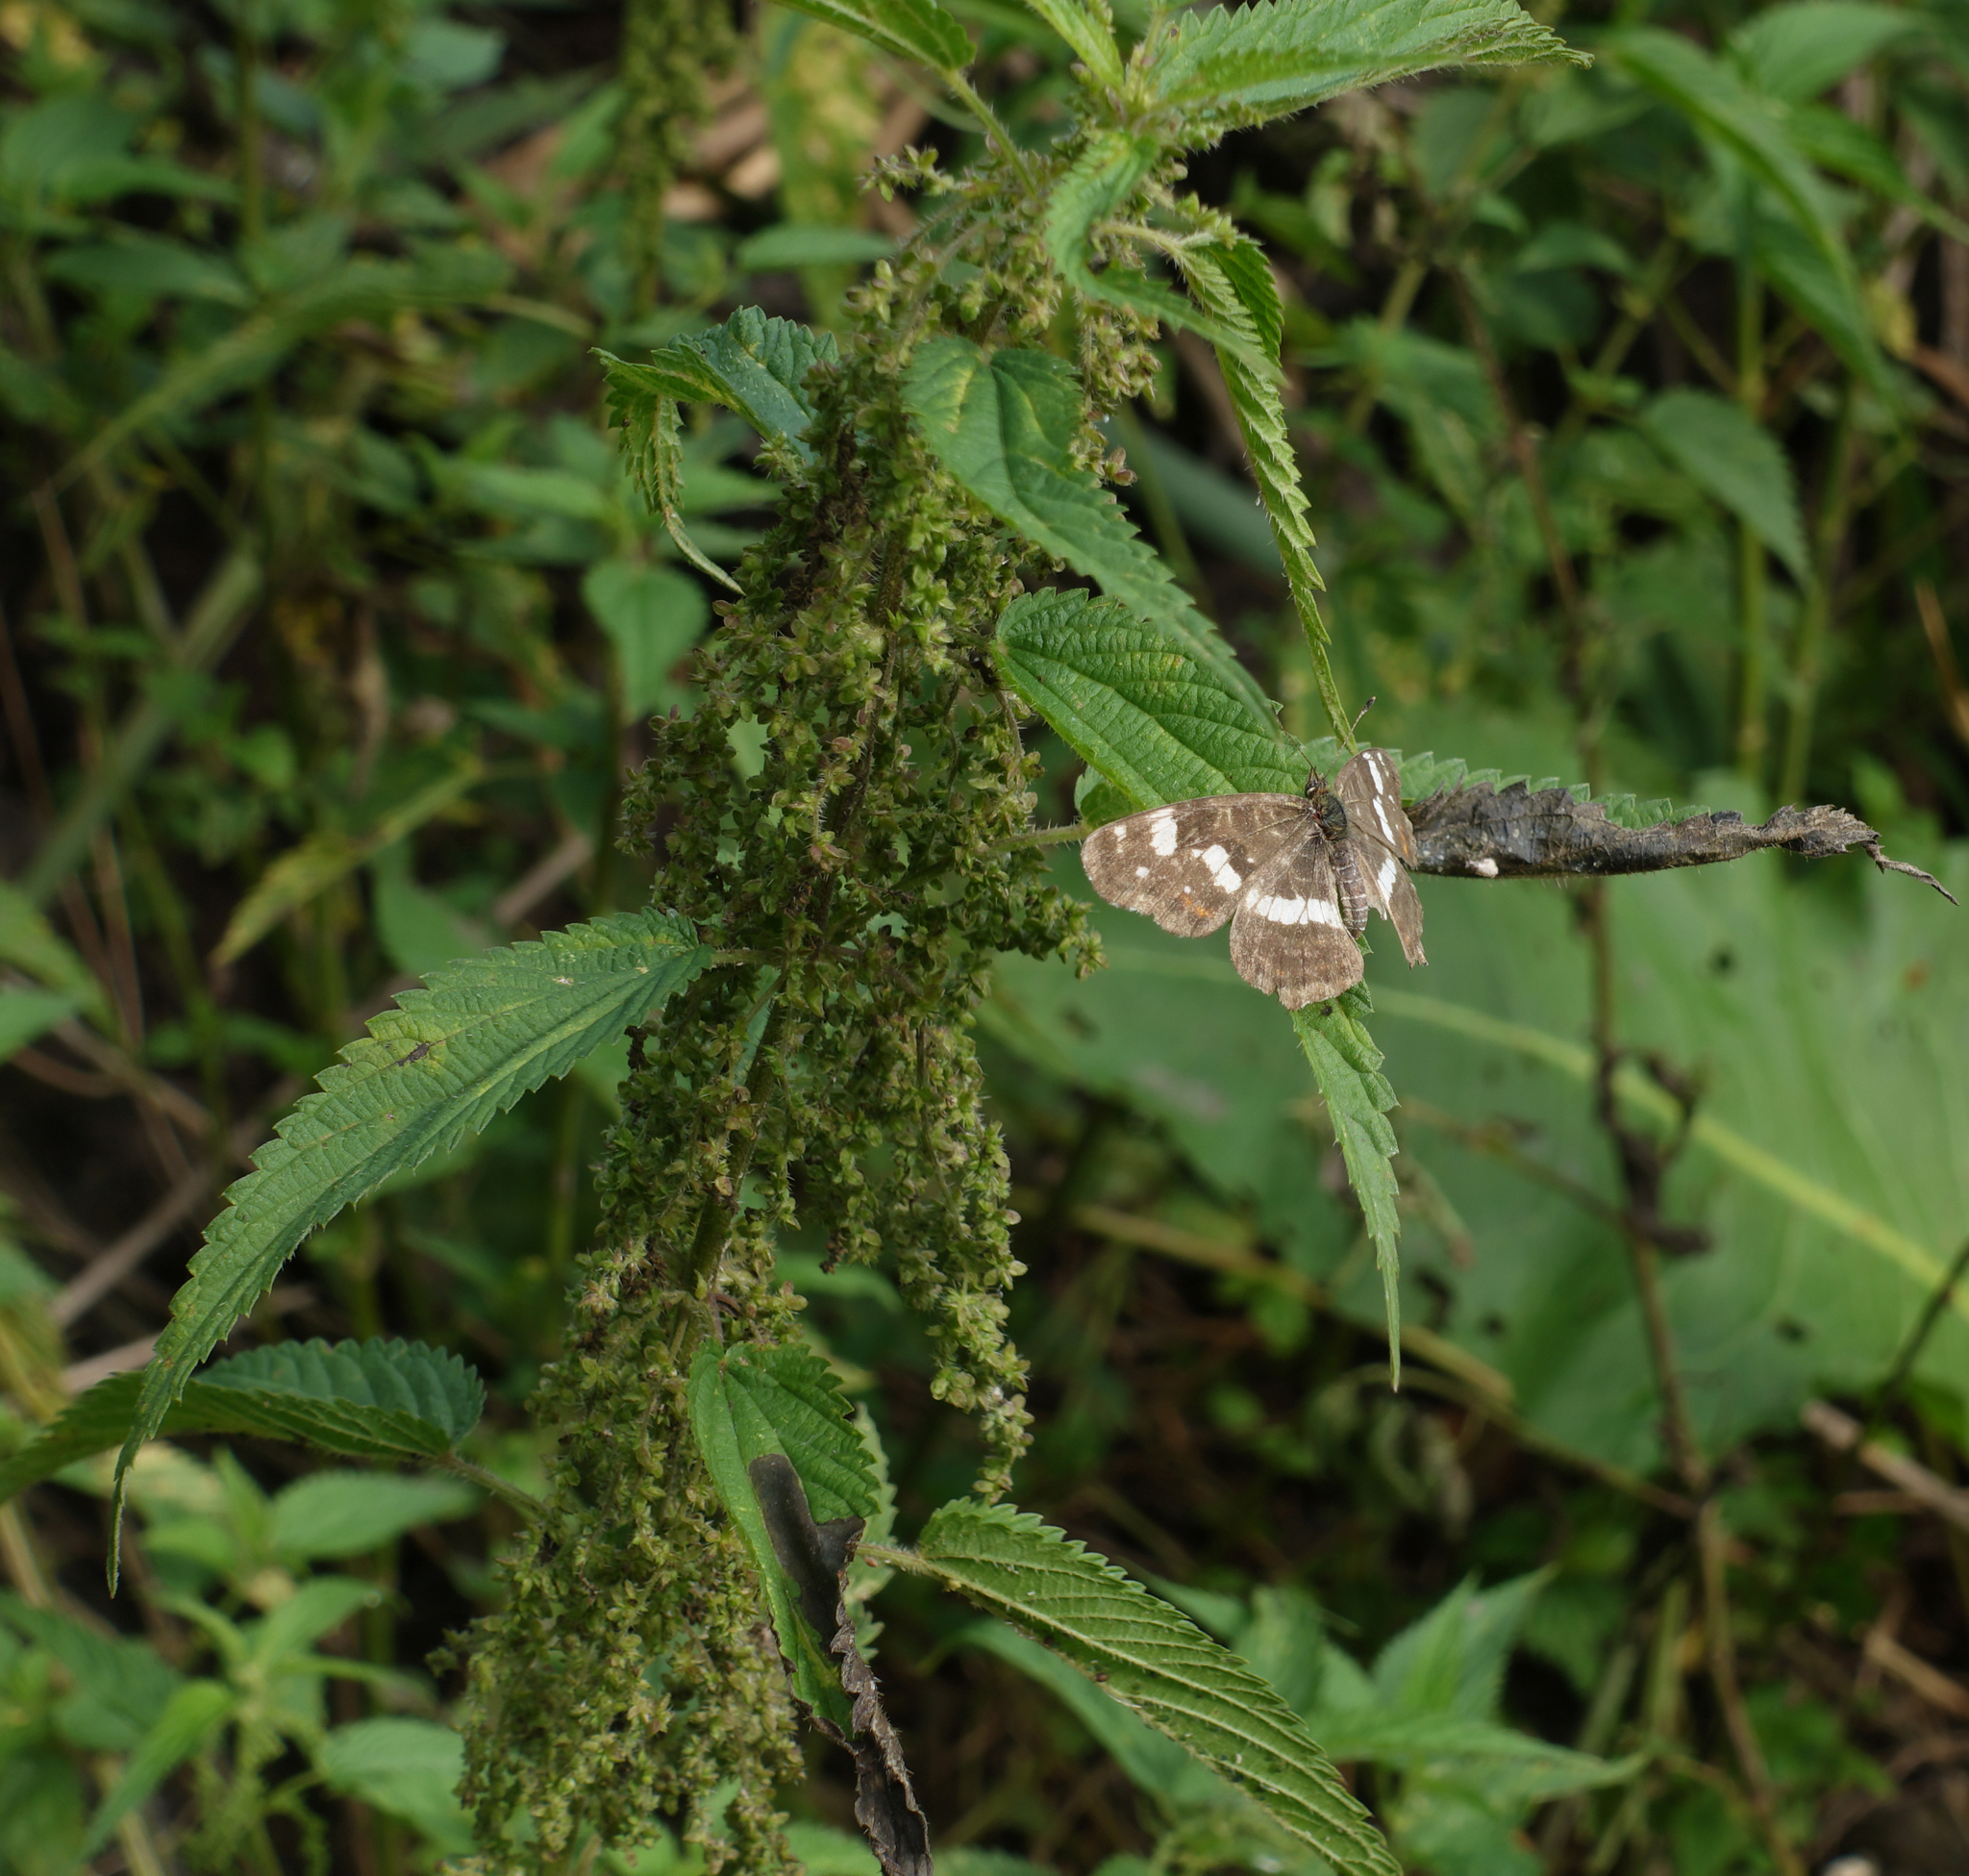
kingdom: Plantae
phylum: Tracheophyta
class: Magnoliopsida
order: Rosales
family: Urticaceae
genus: Urtica
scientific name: Urtica dioica
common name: Common nettle
